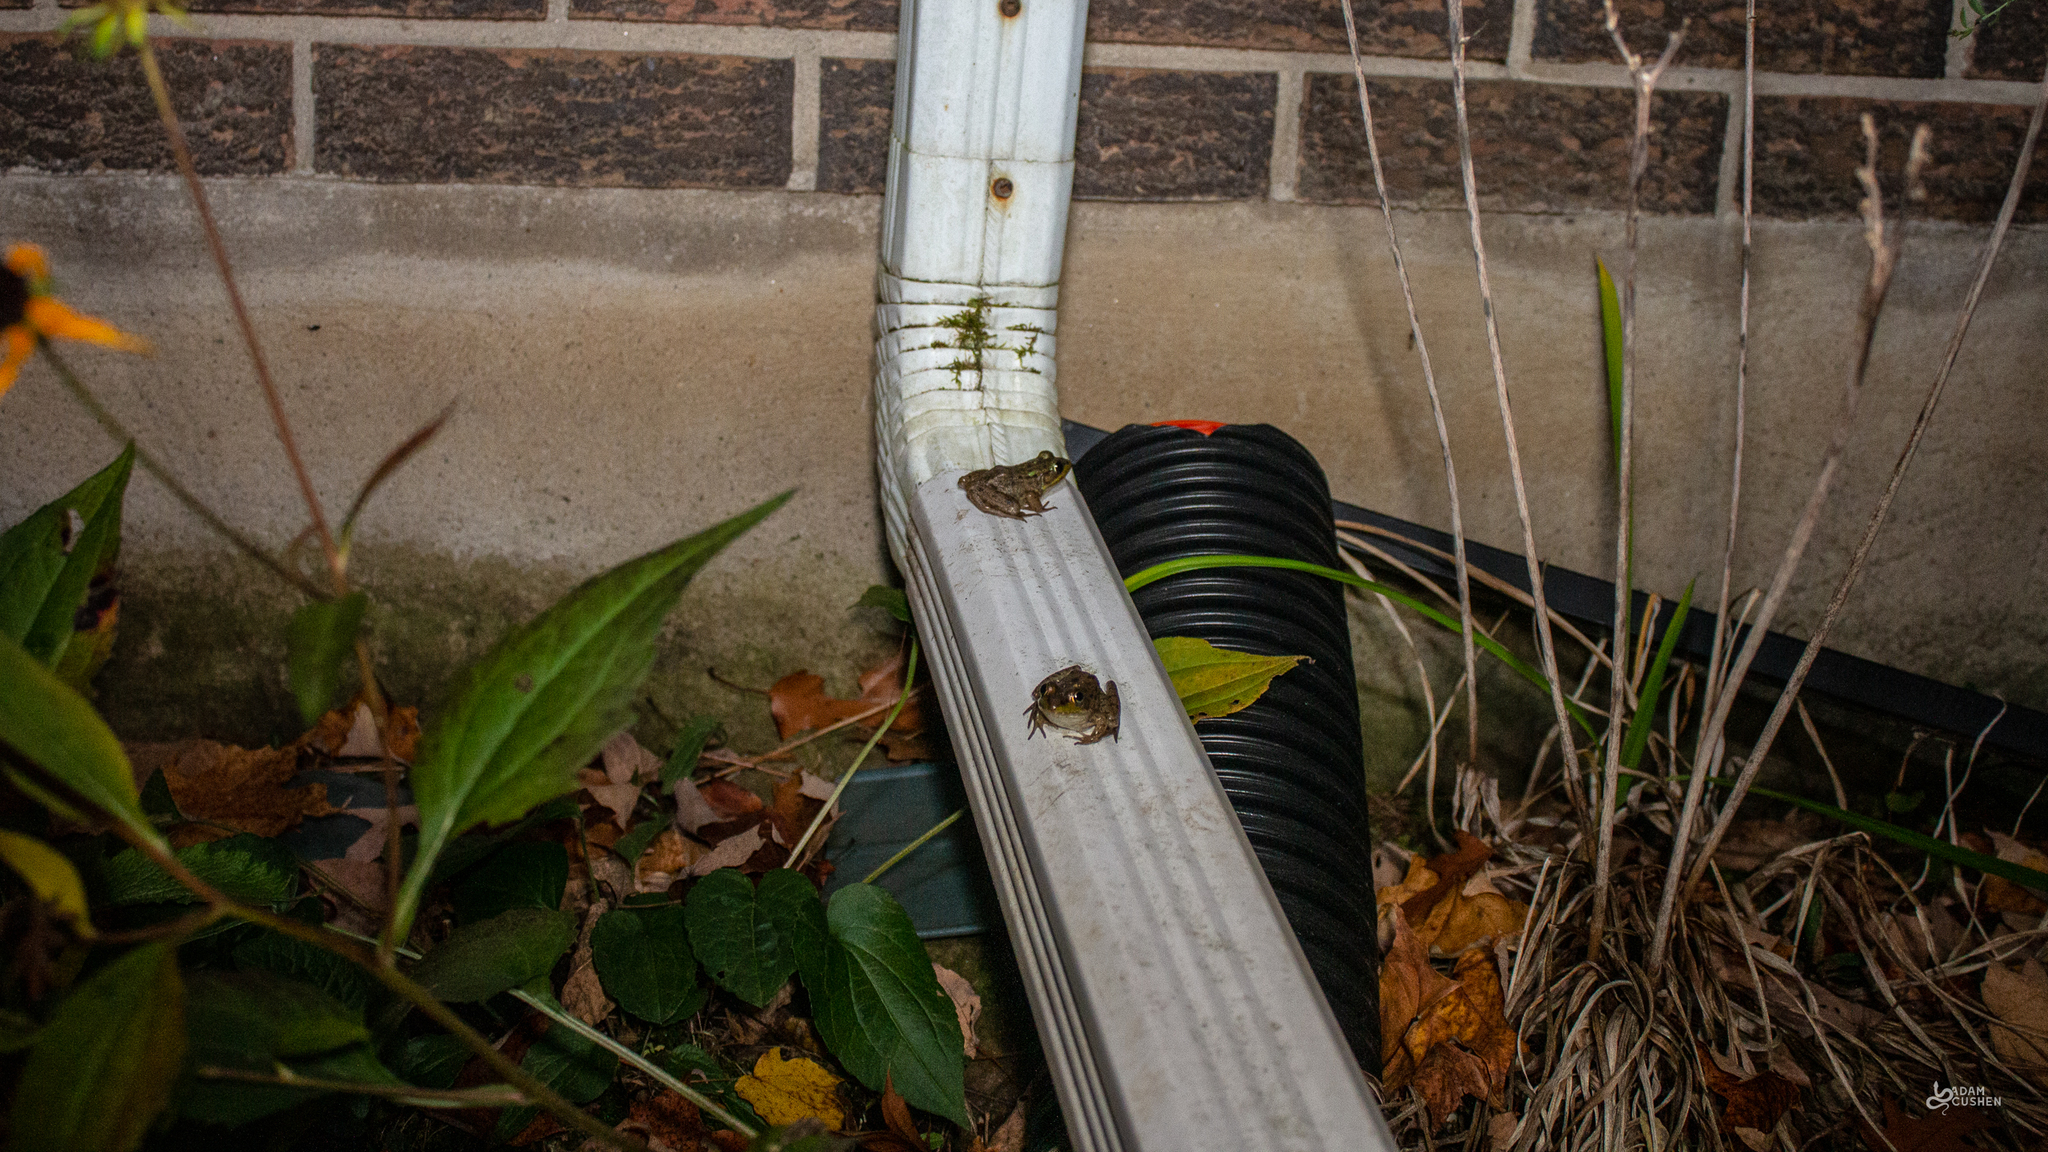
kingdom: Animalia
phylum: Chordata
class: Amphibia
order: Anura
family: Ranidae
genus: Lithobates
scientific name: Lithobates clamitans
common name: Green frog
